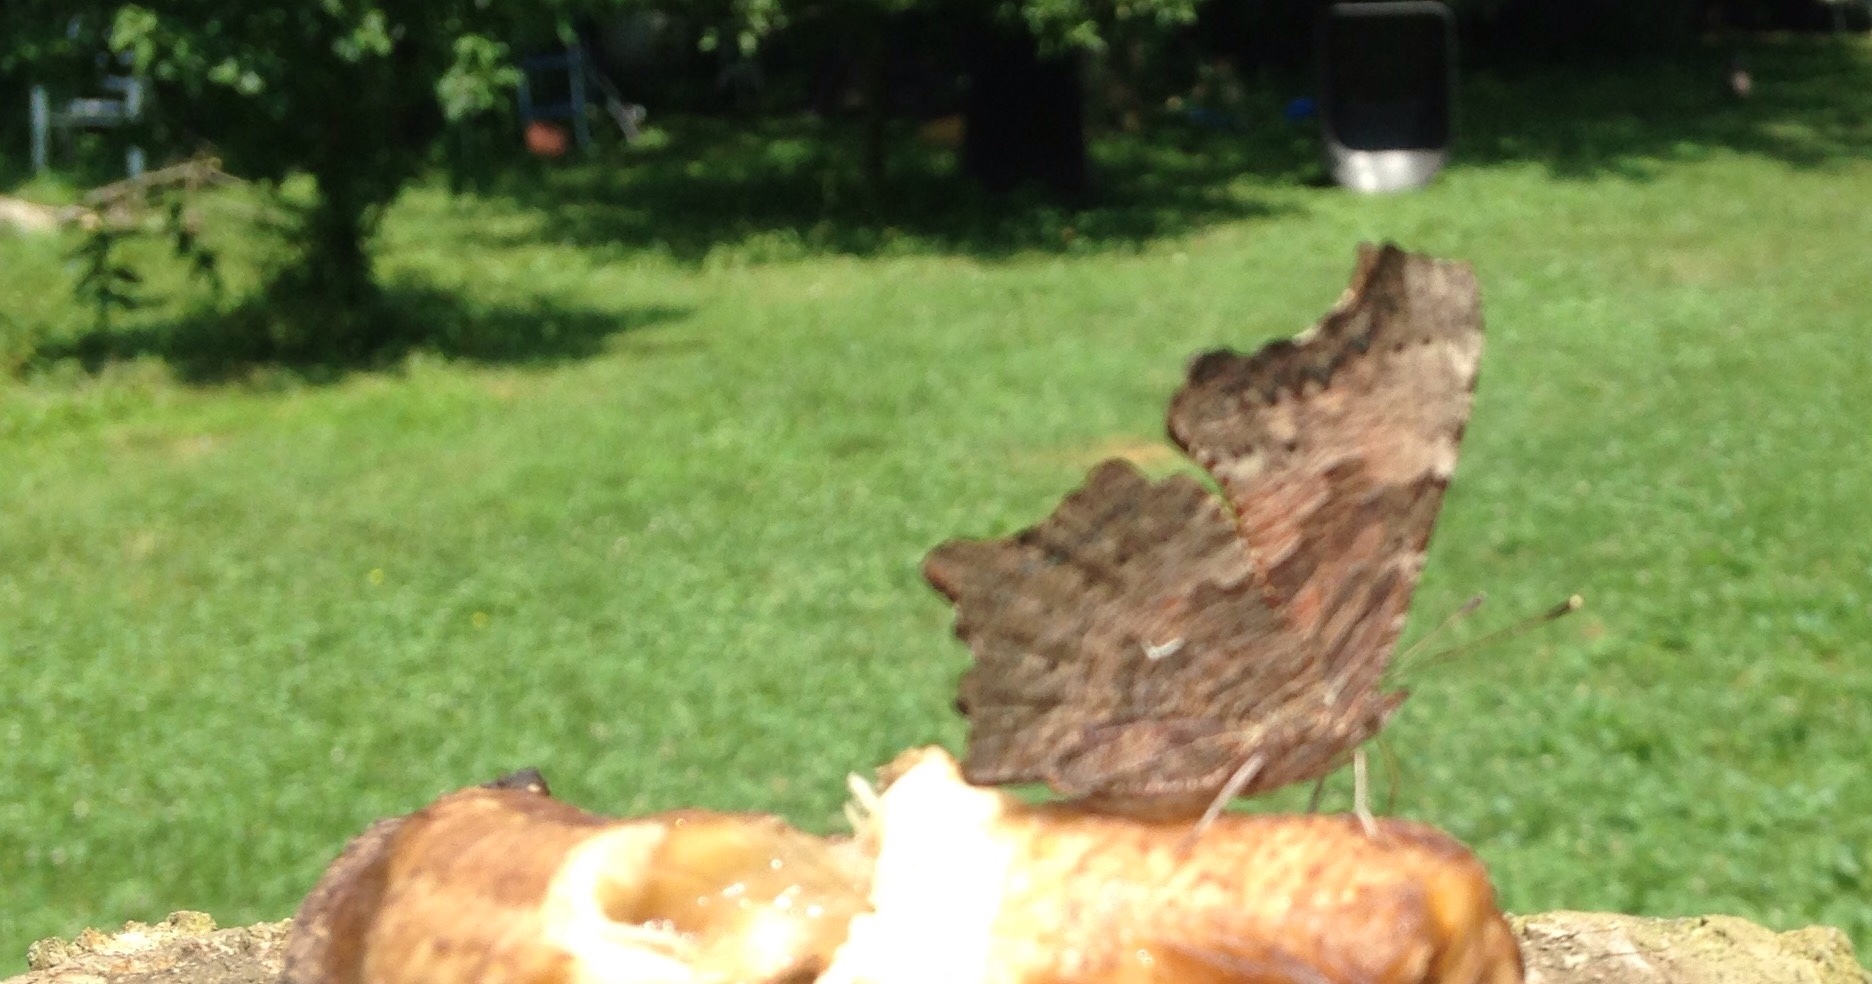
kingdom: Animalia
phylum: Arthropoda
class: Insecta
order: Lepidoptera
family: Nymphalidae
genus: Polygonia
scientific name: Polygonia comma
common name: Eastern comma
